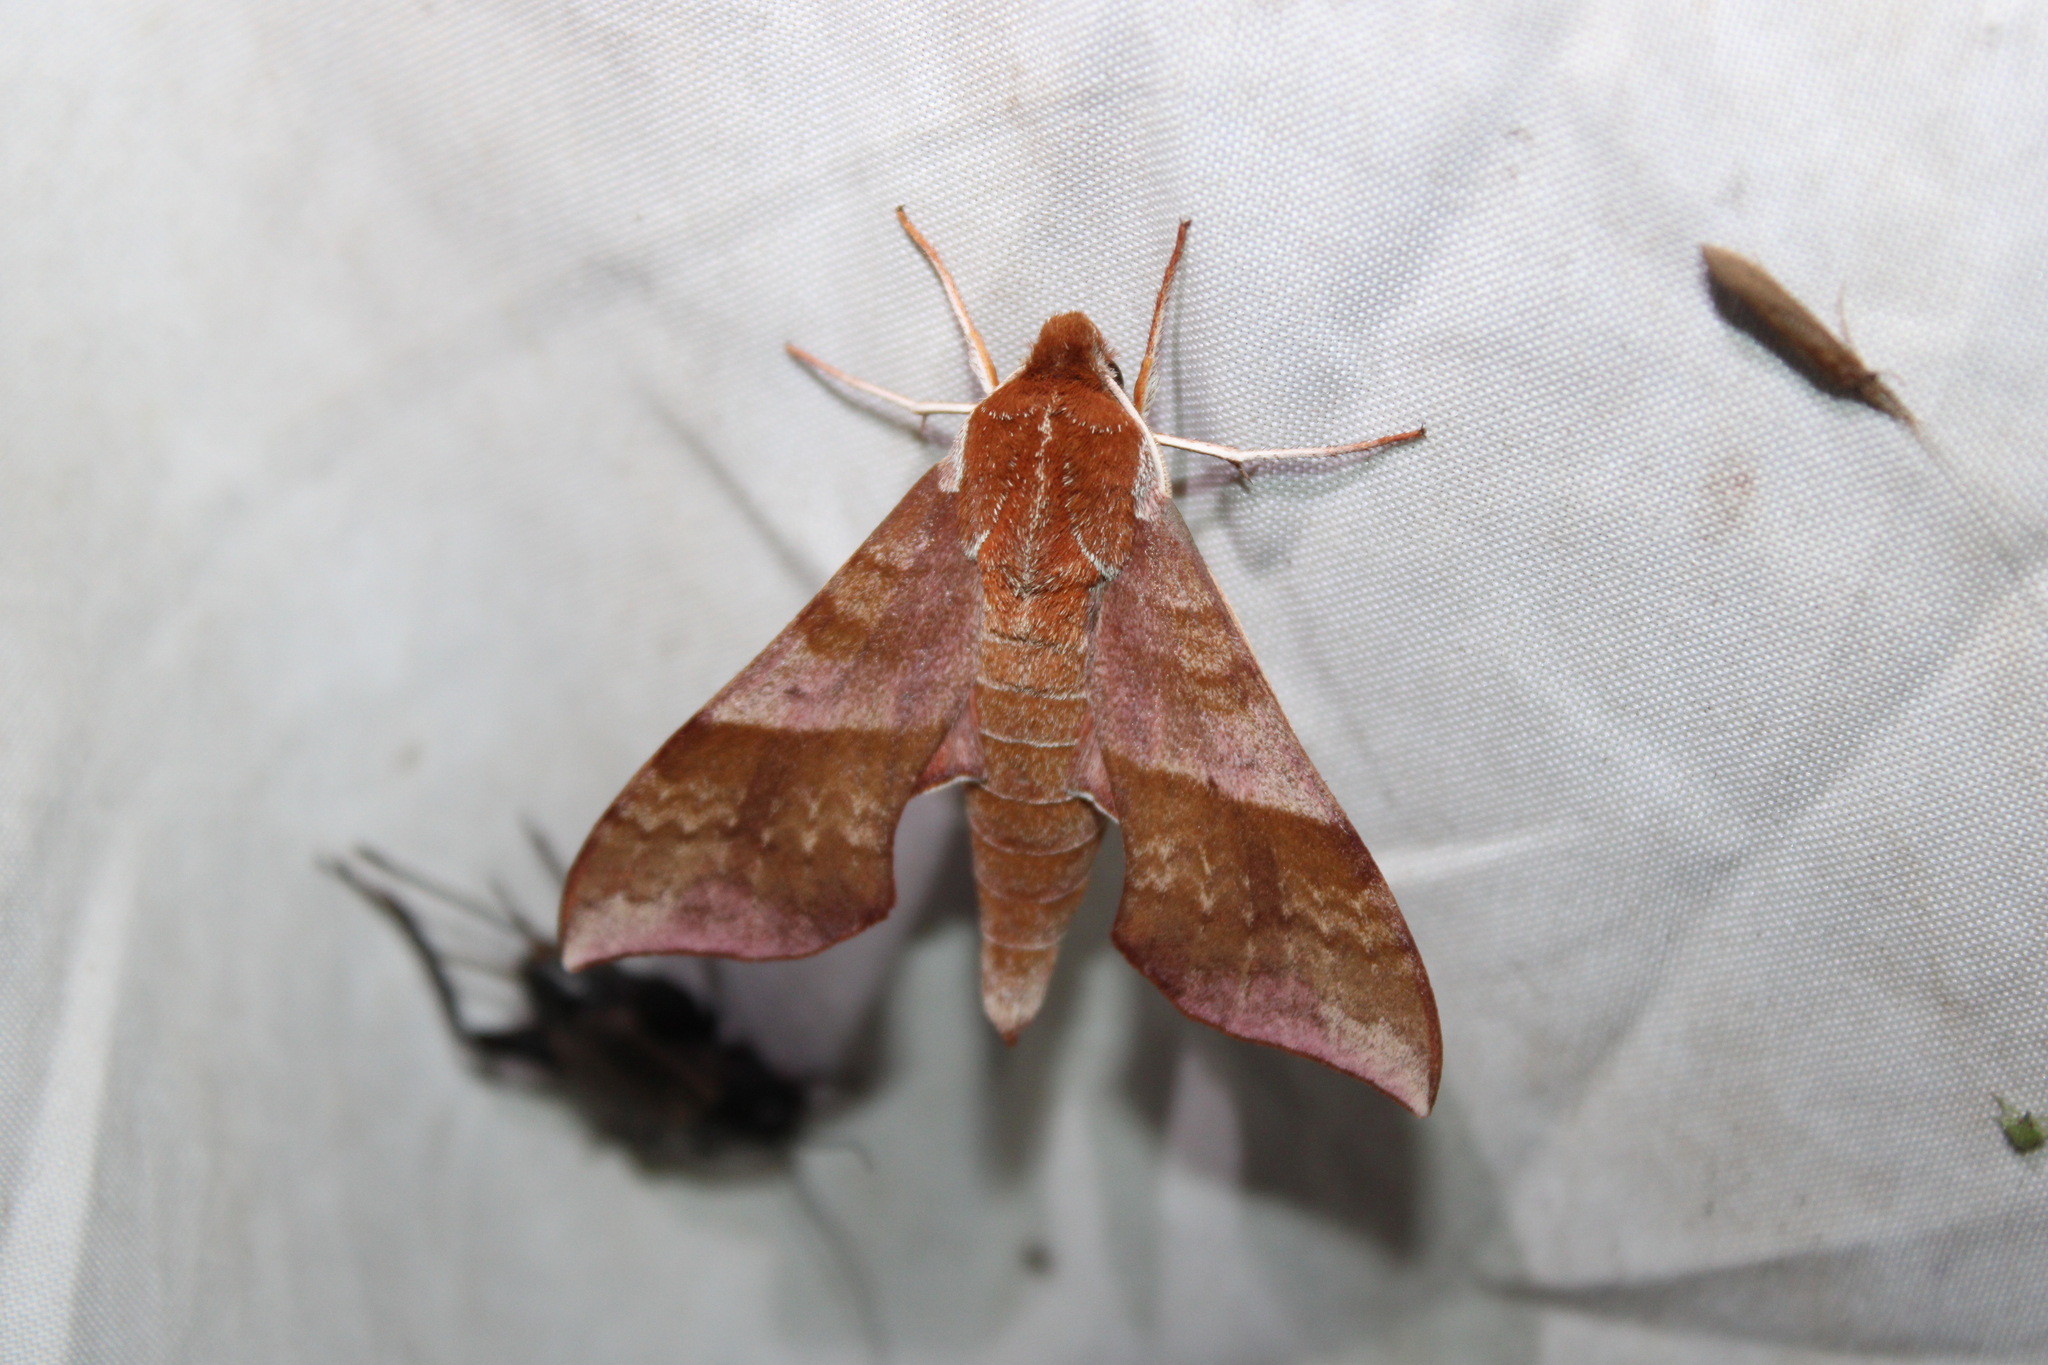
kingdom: Animalia
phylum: Arthropoda
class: Insecta
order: Lepidoptera
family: Sphingidae
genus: Darapsa
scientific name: Darapsa choerilus
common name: Azalea sphinx
